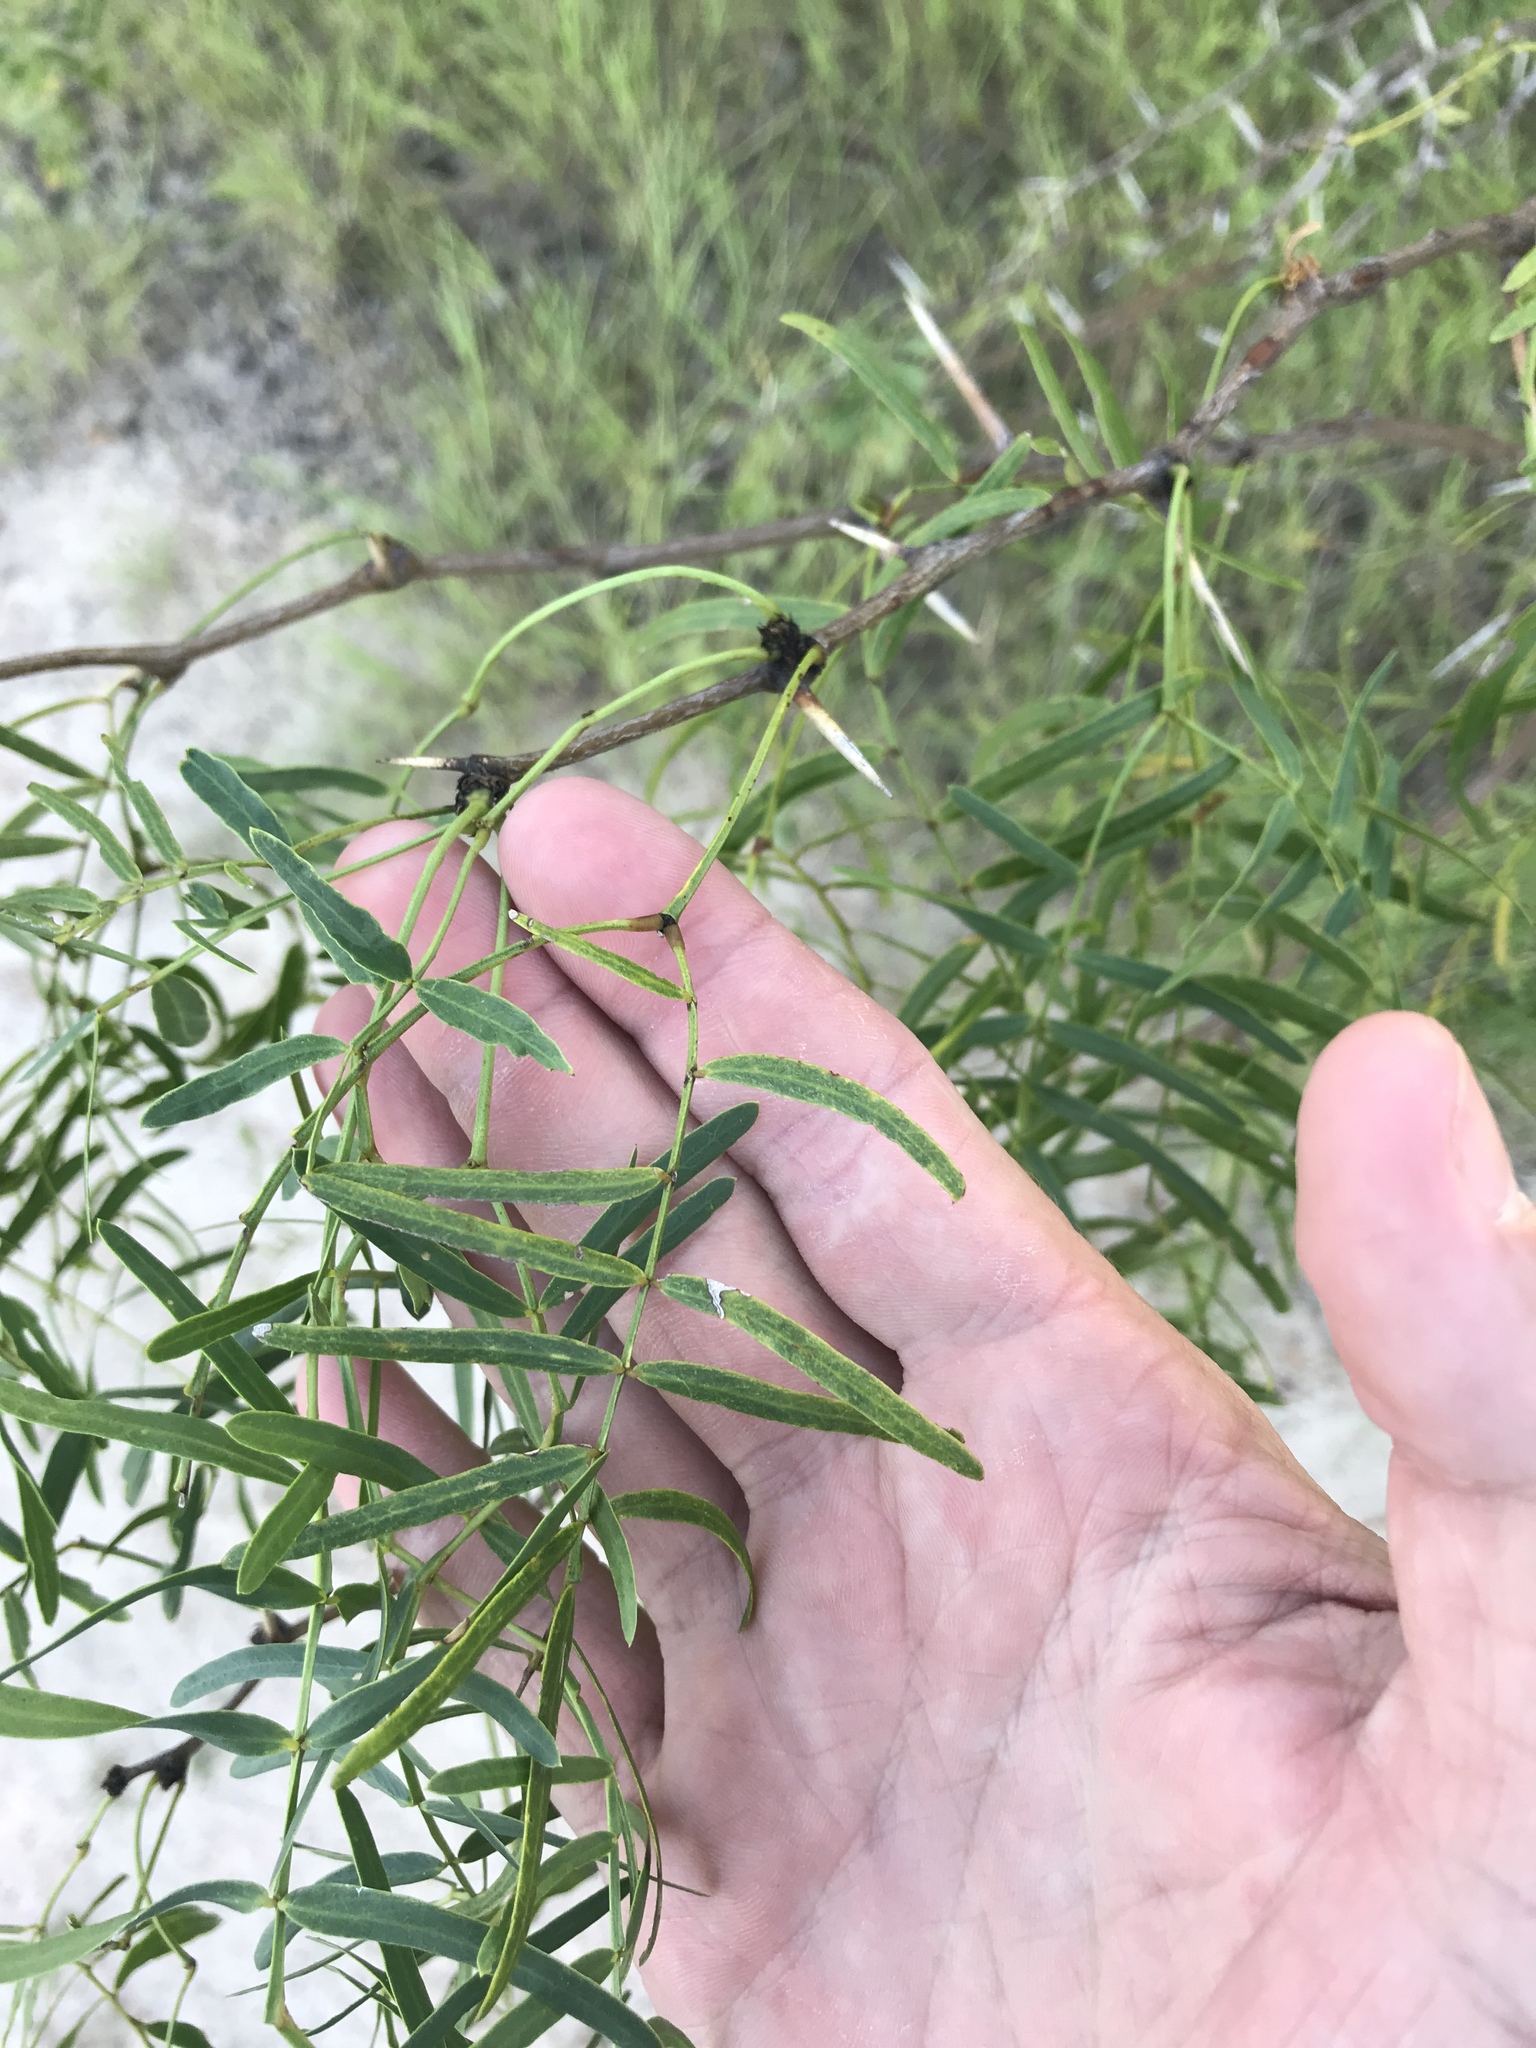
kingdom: Plantae
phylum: Tracheophyta
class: Magnoliopsida
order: Fabales
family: Fabaceae
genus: Prosopis
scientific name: Prosopis glandulosa
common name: Honey mesquite
